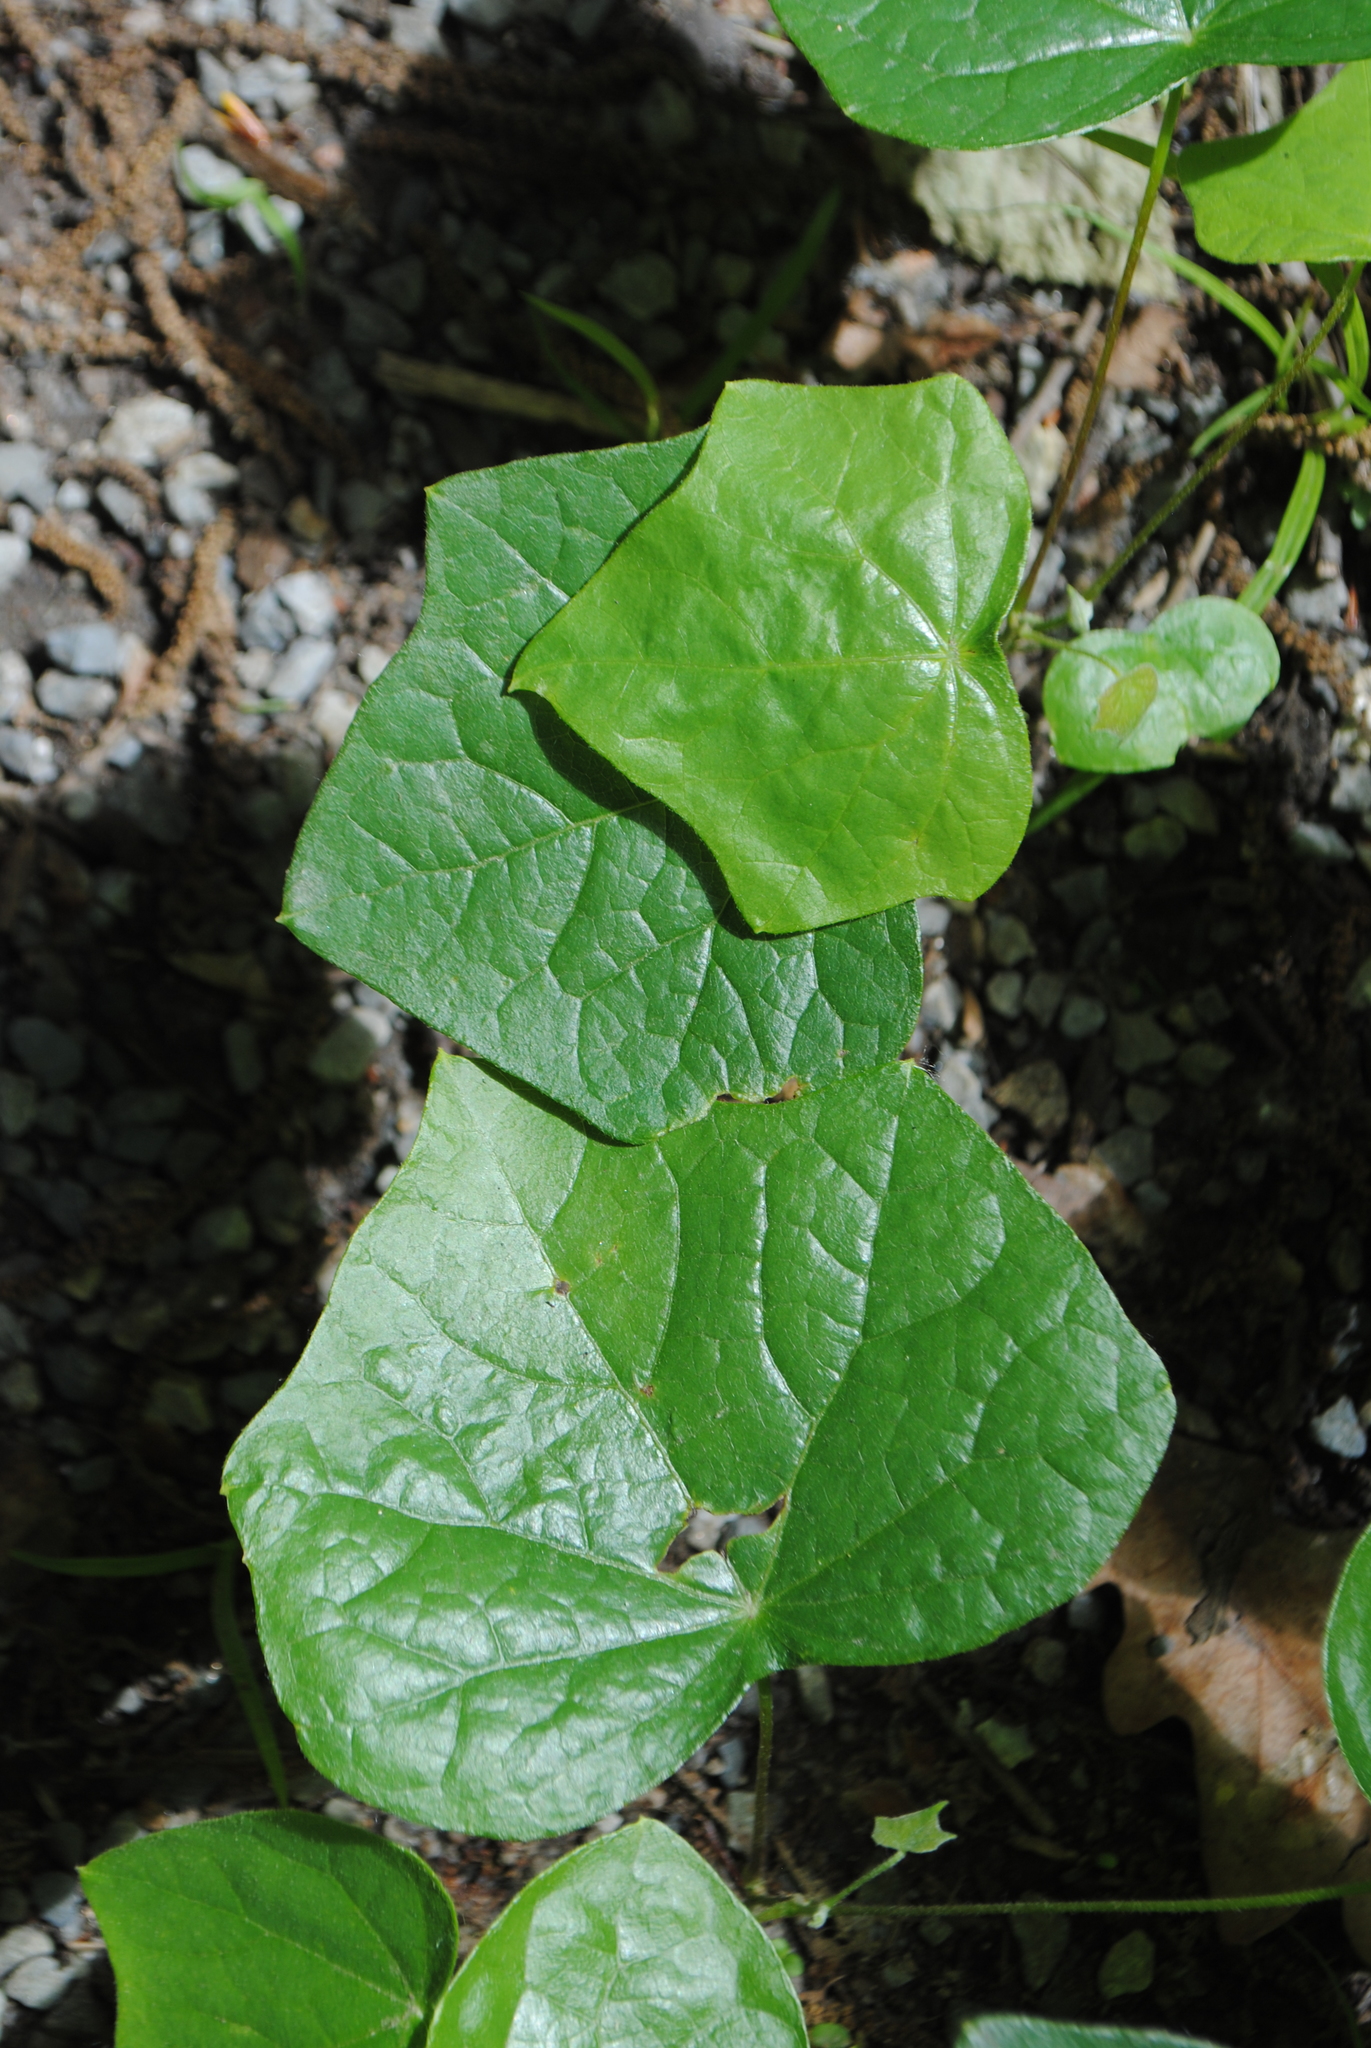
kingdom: Plantae
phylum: Tracheophyta
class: Magnoliopsida
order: Ranunculales
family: Menispermaceae
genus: Menispermum
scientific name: Menispermum canadense
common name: Moonseed
